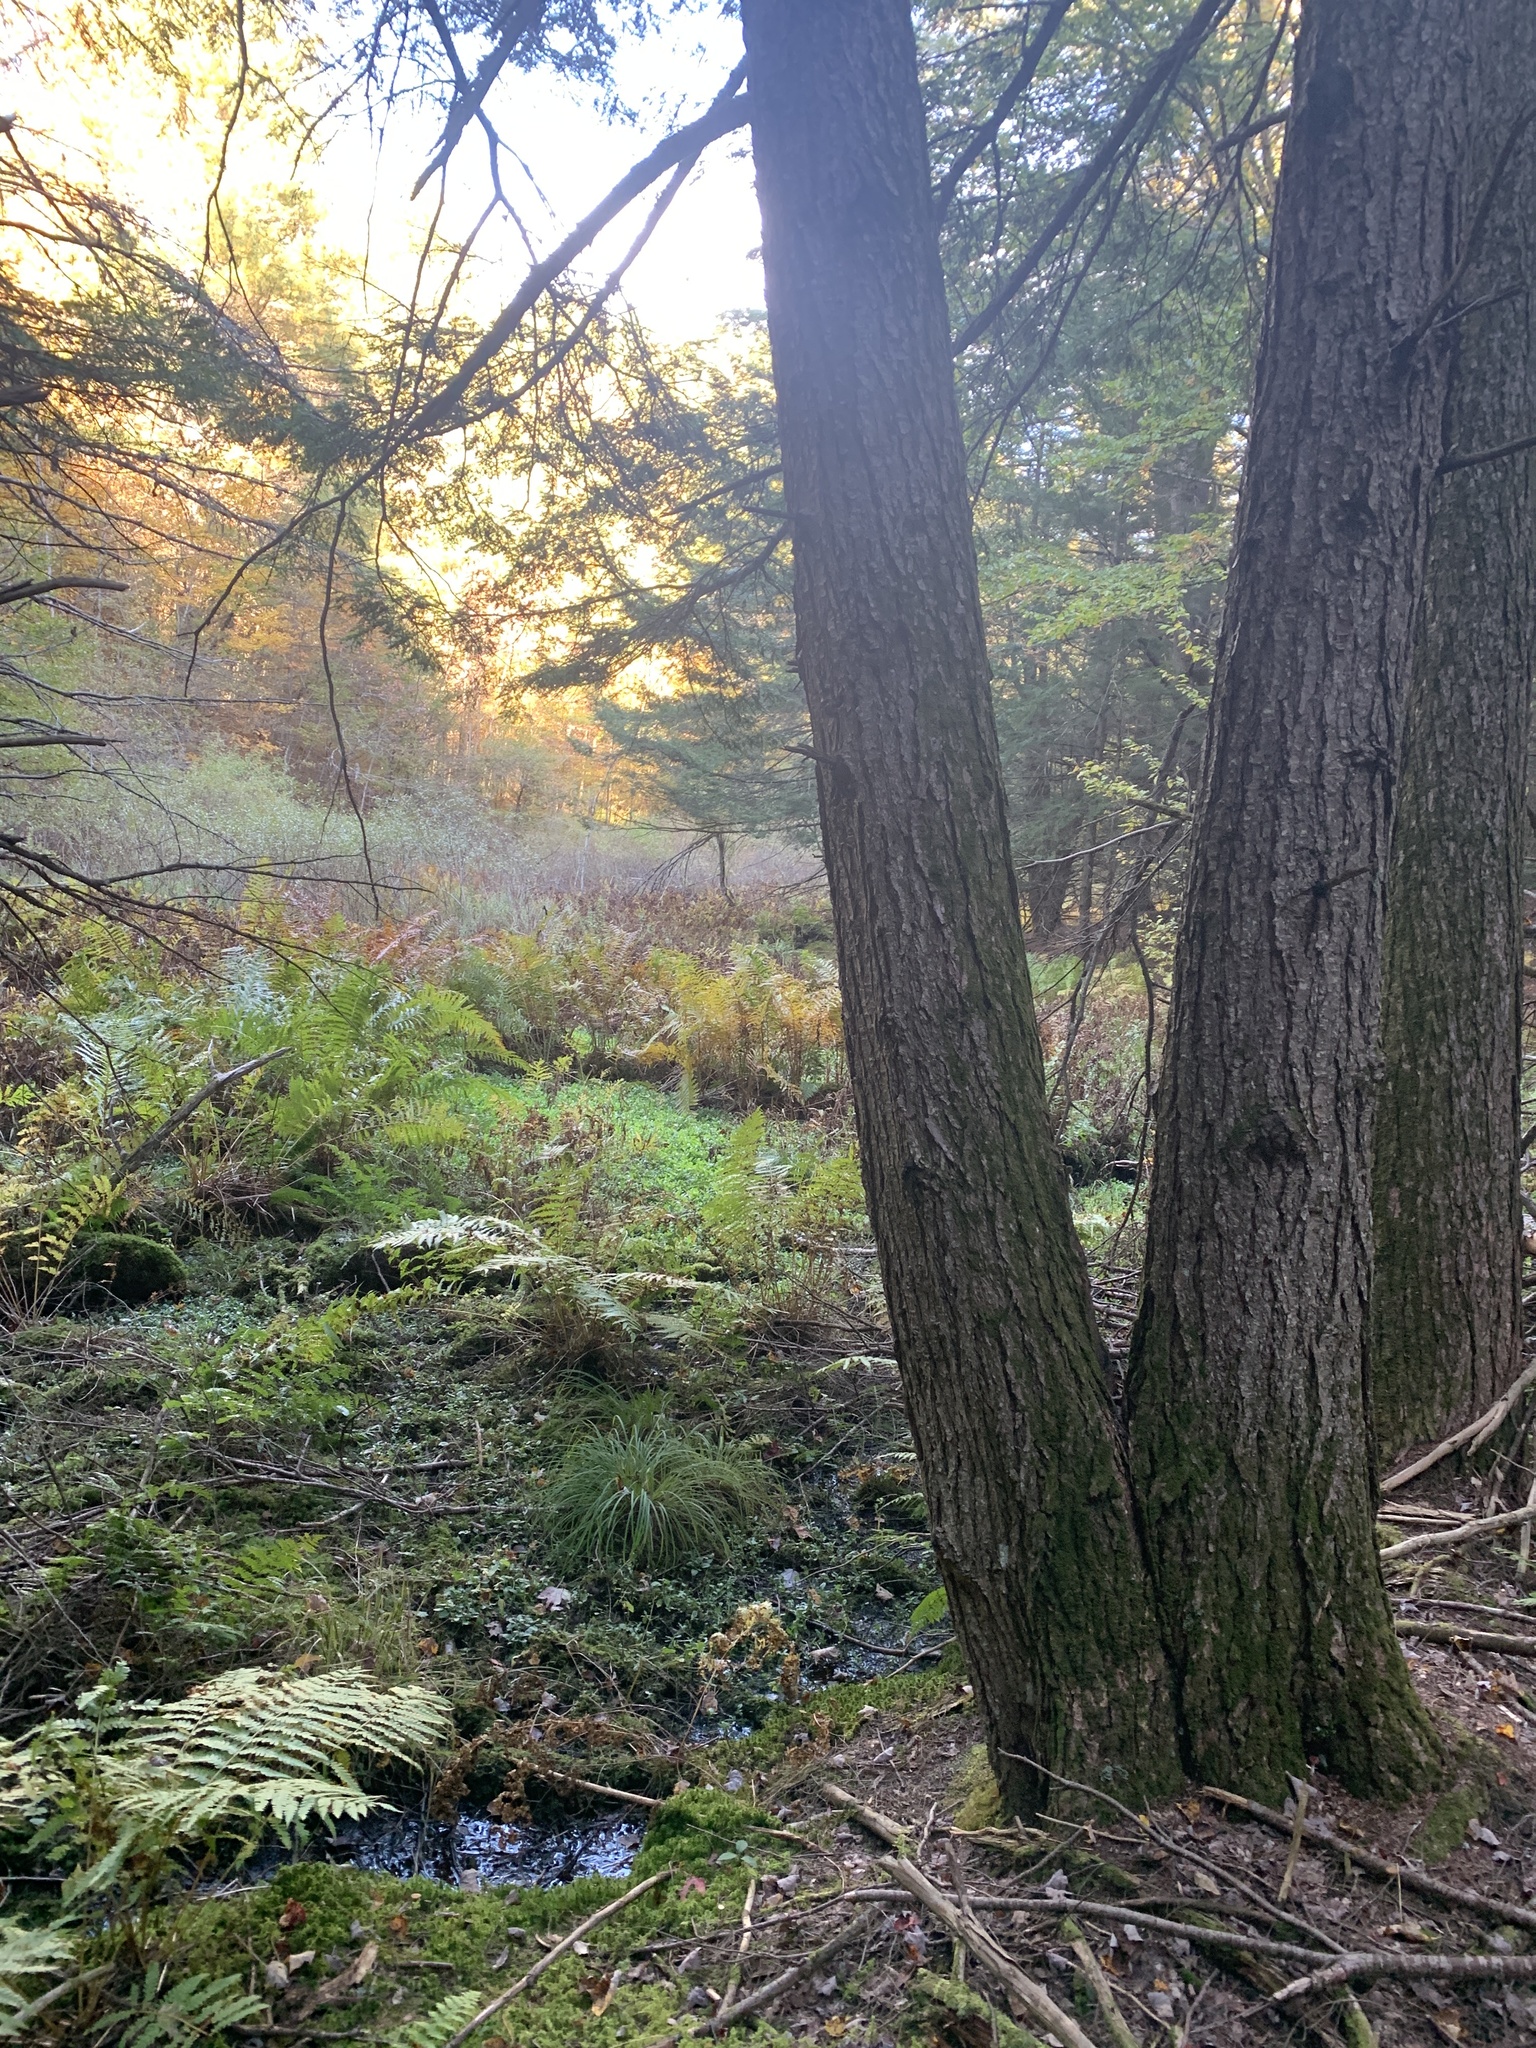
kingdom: Plantae
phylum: Tracheophyta
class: Pinopsida
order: Pinales
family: Pinaceae
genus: Tsuga
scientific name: Tsuga canadensis
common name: Eastern hemlock
